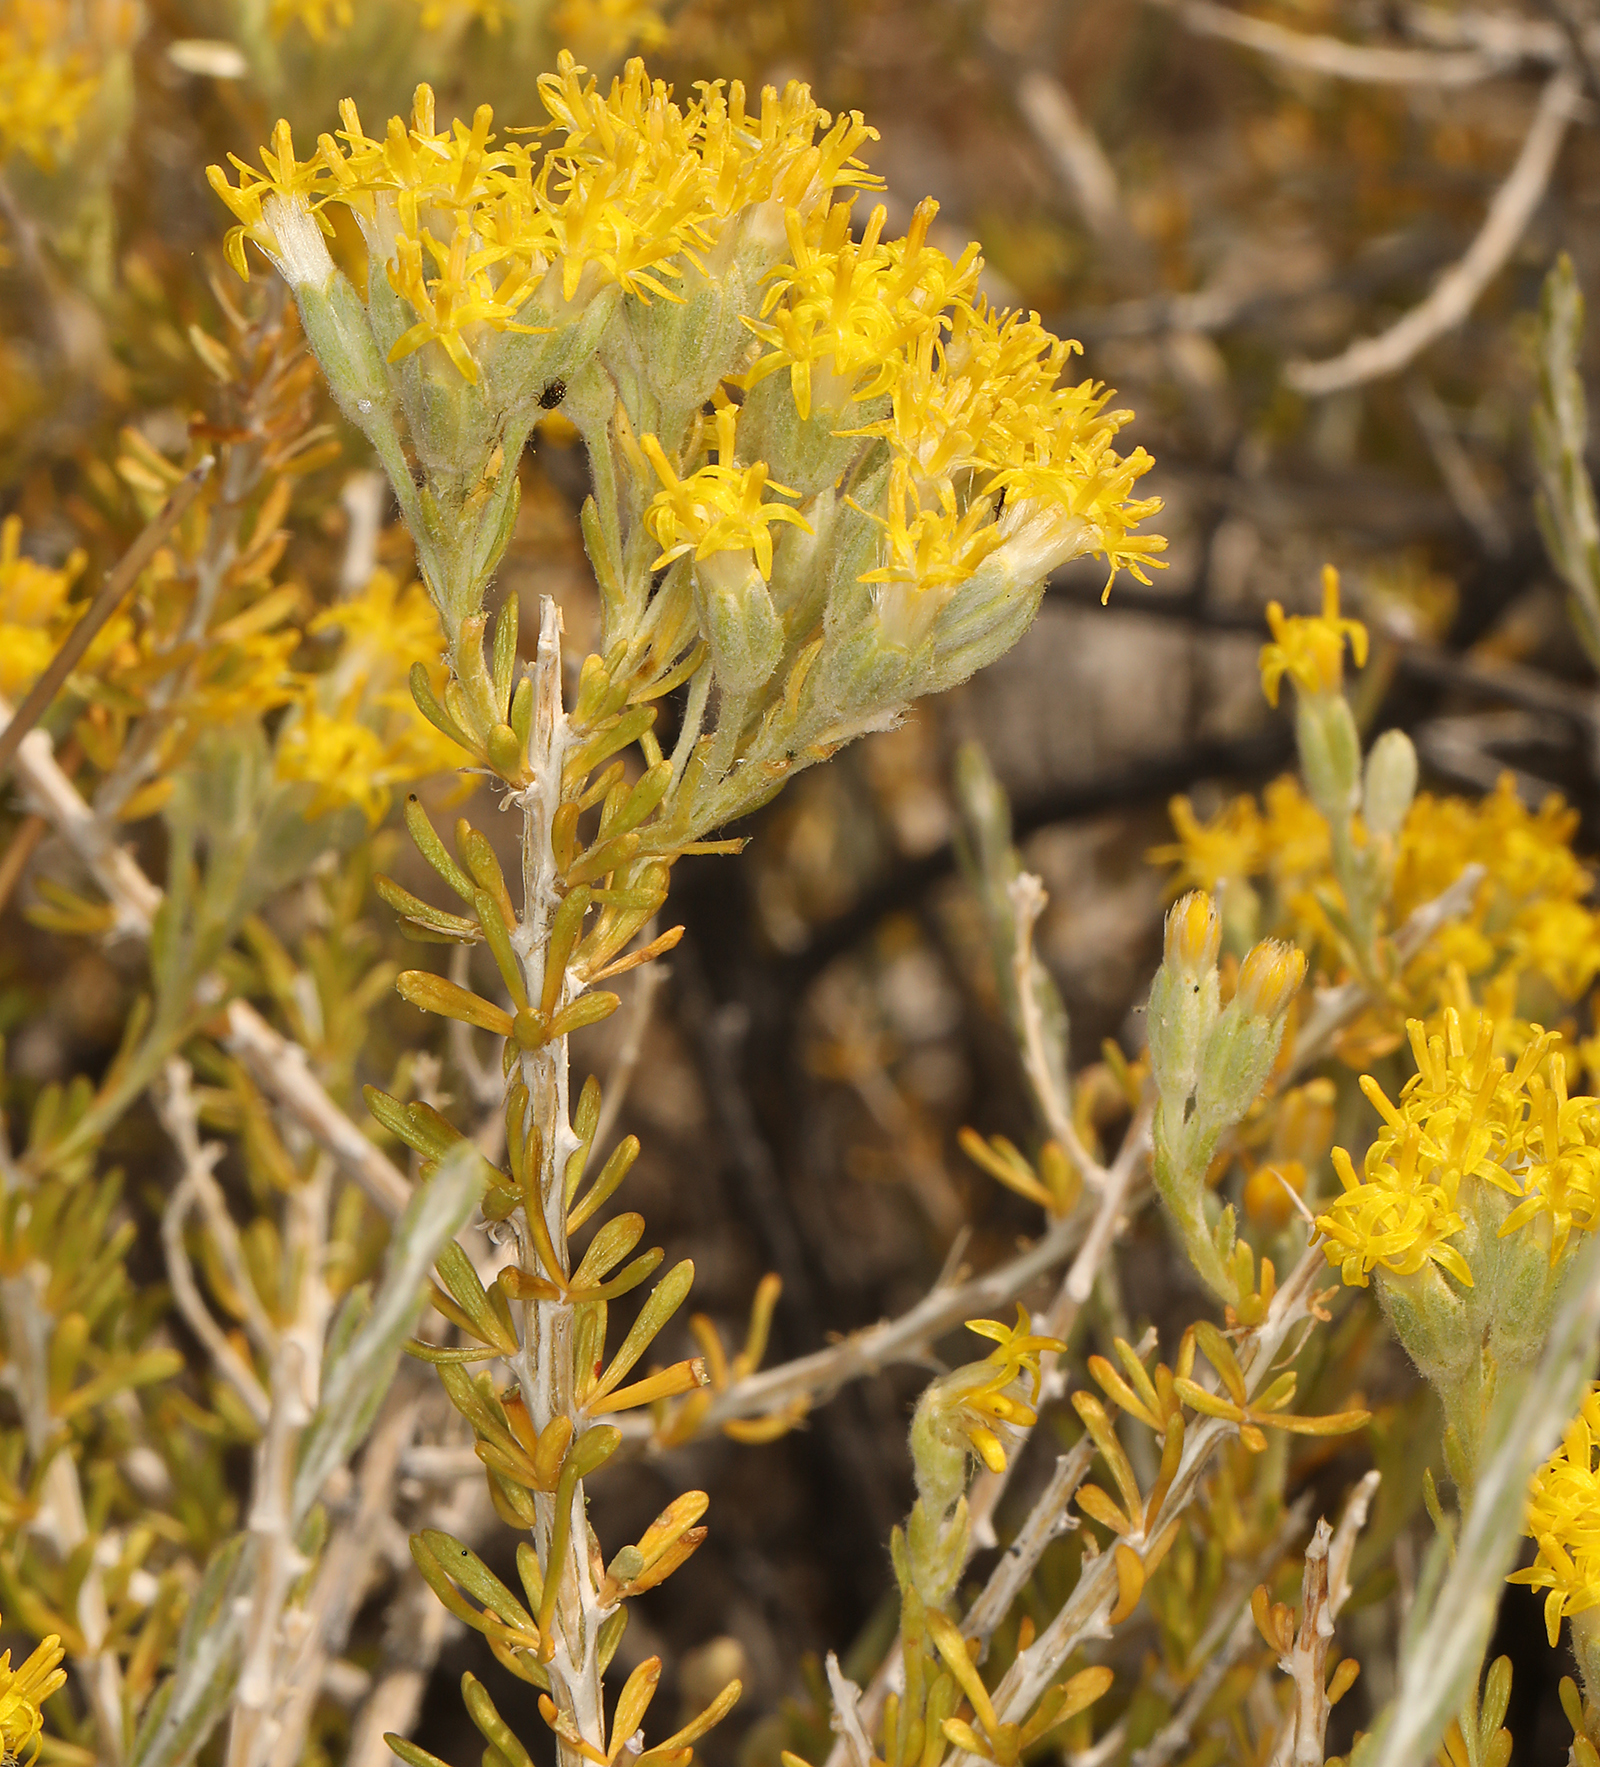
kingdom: Plantae
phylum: Tracheophyta
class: Magnoliopsida
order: Asterales
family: Asteraceae
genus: Tetradymia
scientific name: Tetradymia glabrata
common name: Smooth tetradymia
